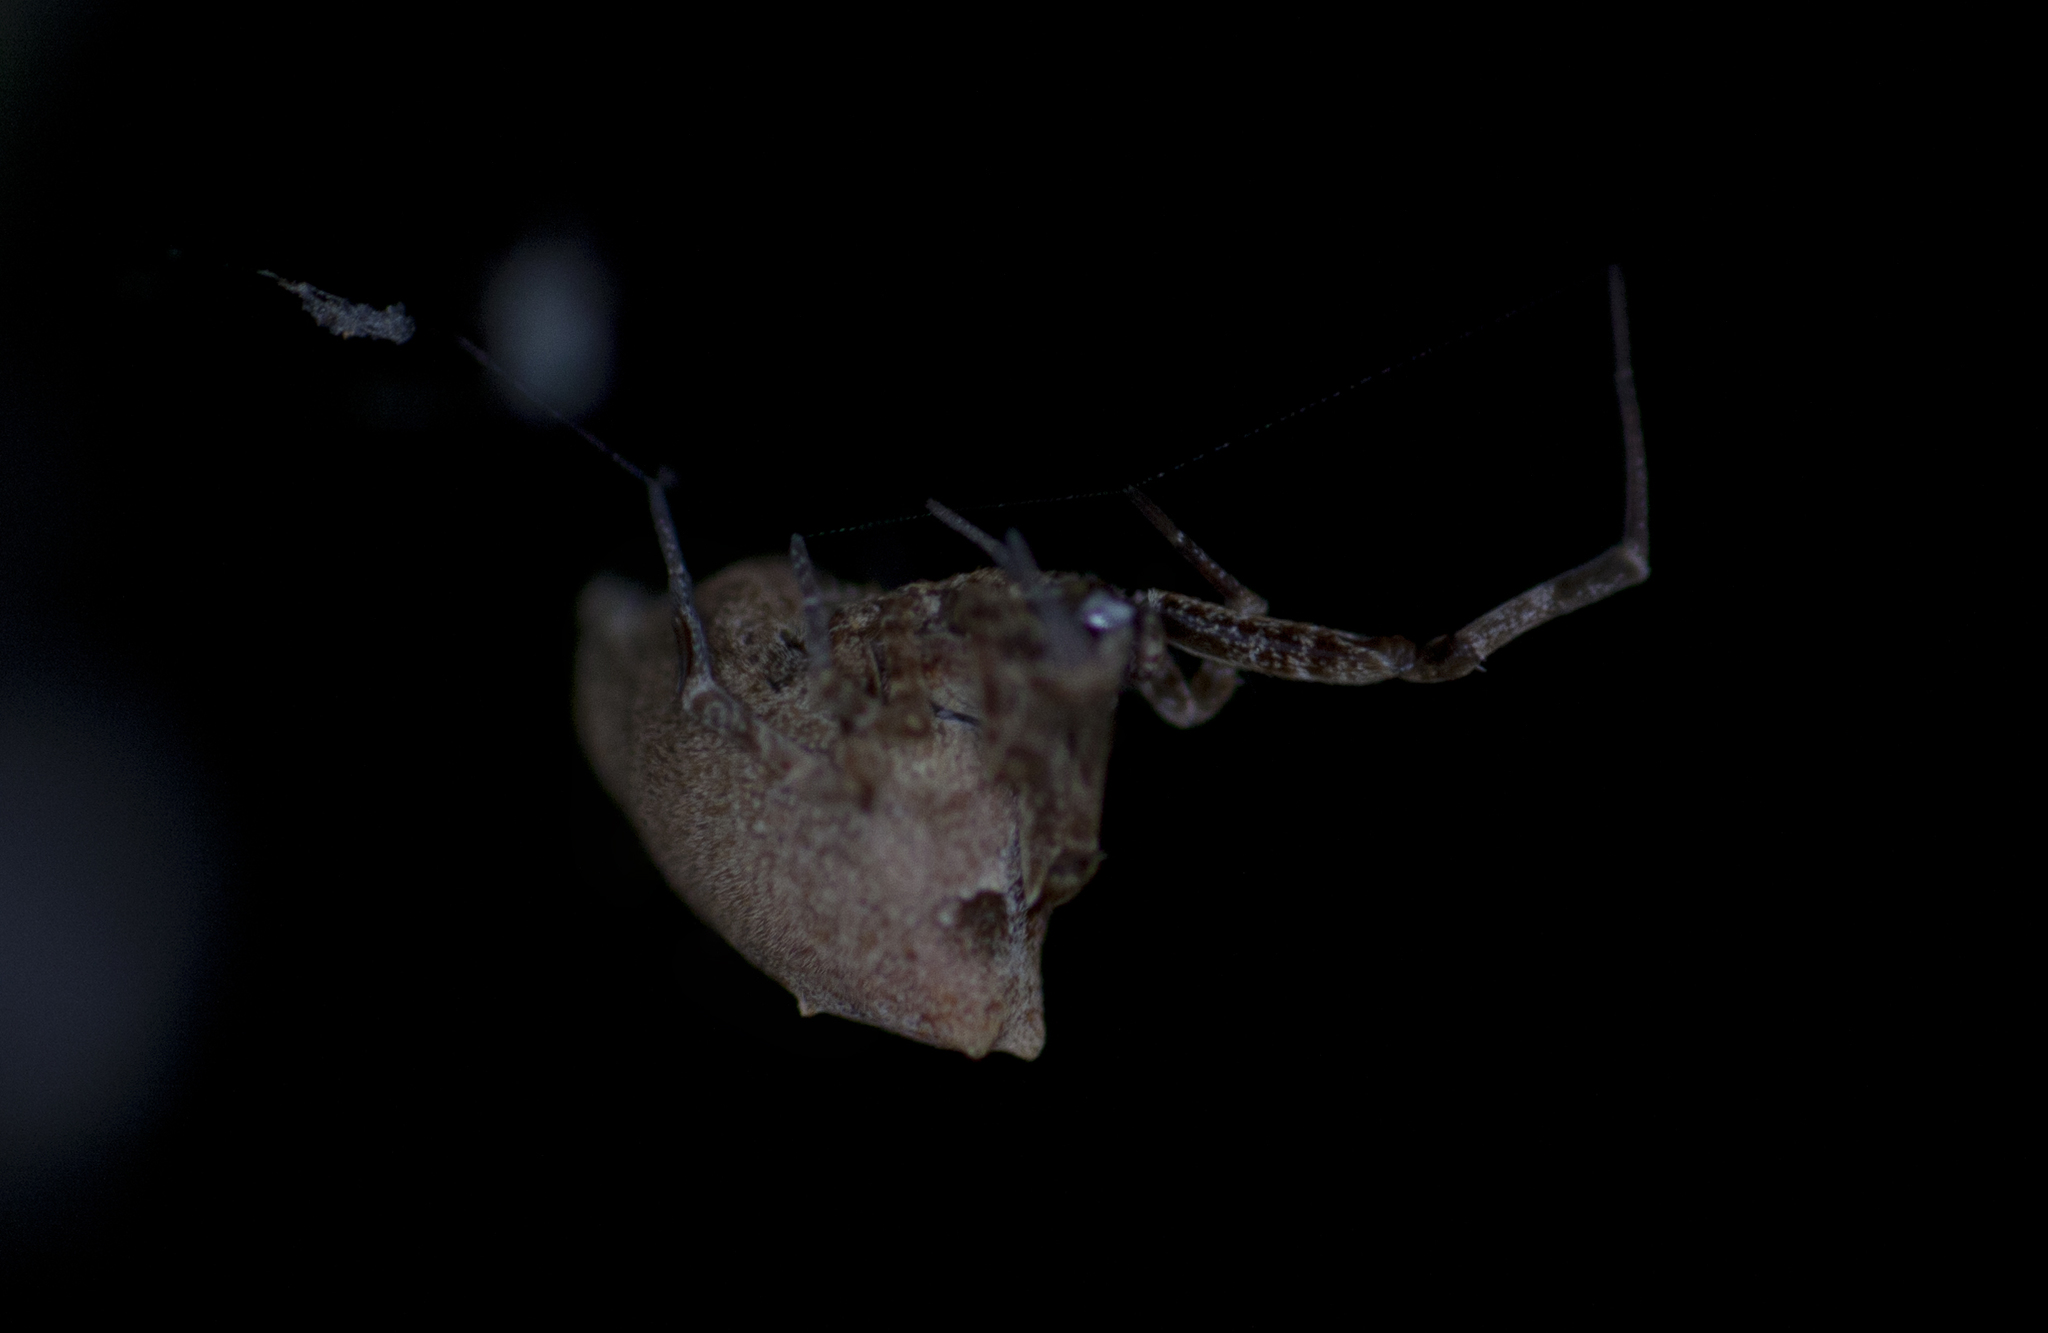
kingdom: Animalia
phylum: Arthropoda
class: Arachnida
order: Araneae
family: Uloboridae
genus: Philoponella
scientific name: Philoponella congregabilis
